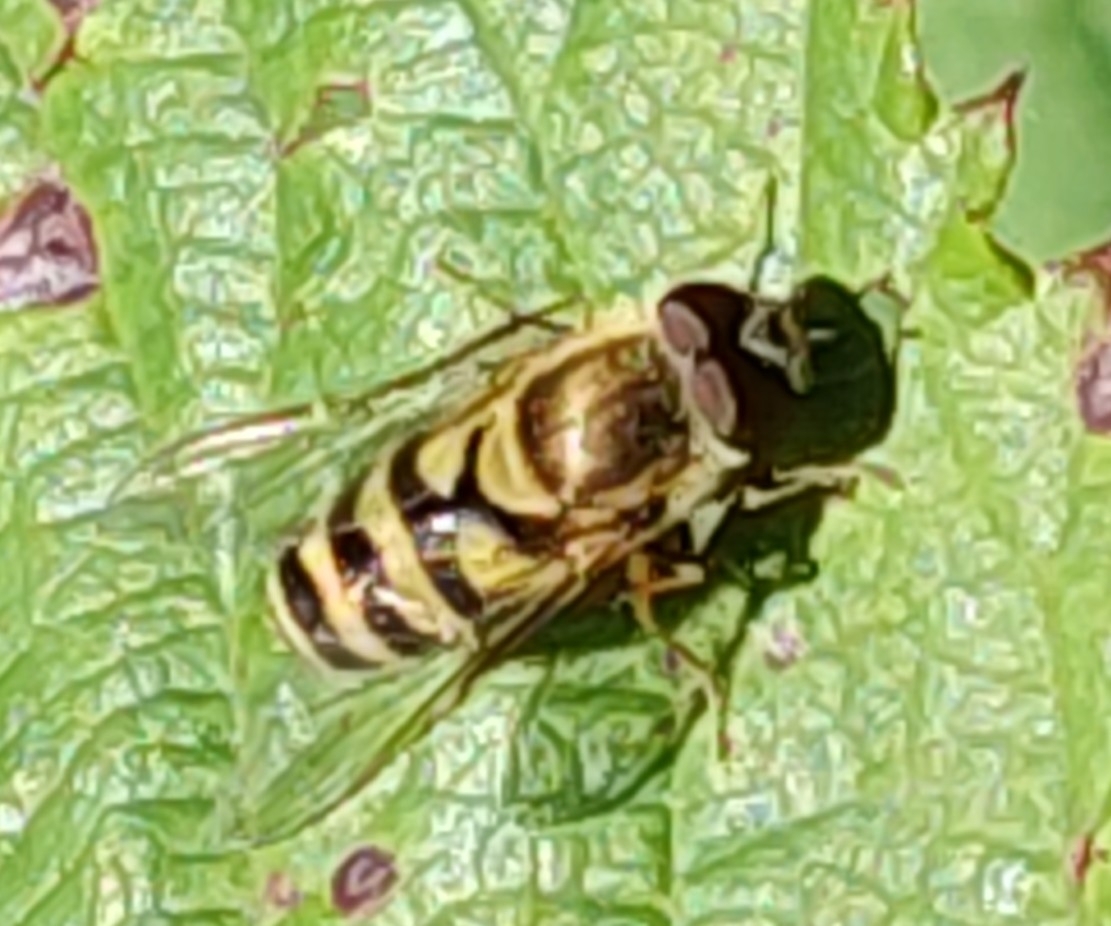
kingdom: Animalia
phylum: Arthropoda
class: Insecta
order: Diptera
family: Syrphidae
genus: Syrphus
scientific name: Syrphus
